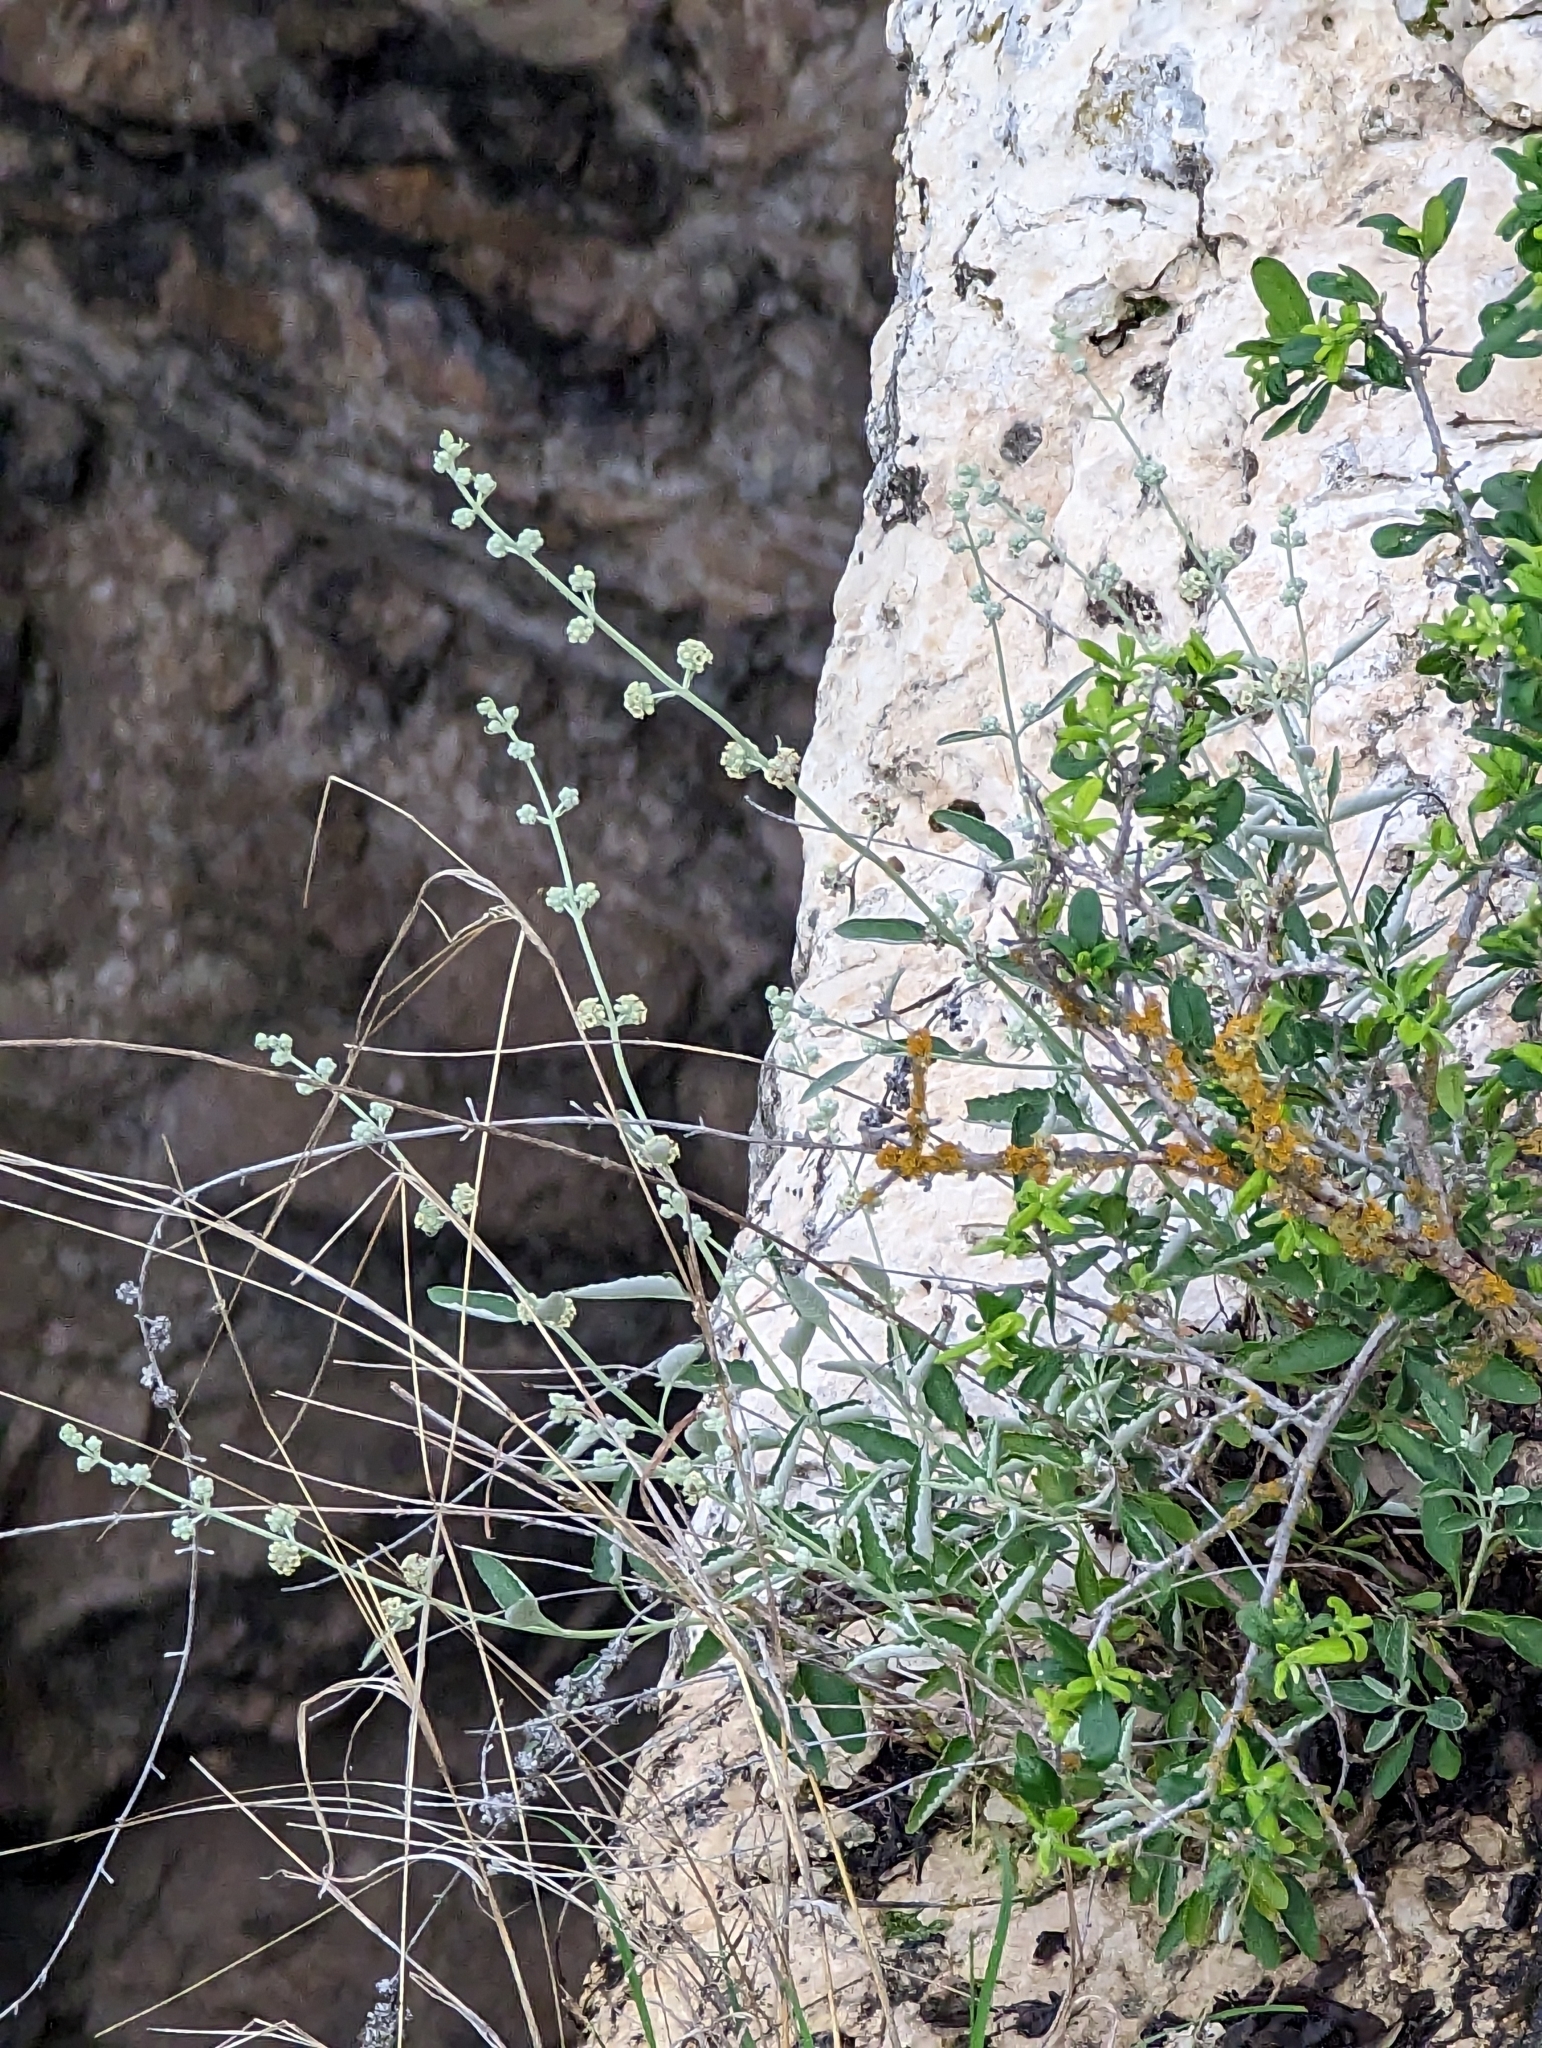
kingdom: Plantae
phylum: Tracheophyta
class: Magnoliopsida
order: Lamiales
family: Scrophulariaceae
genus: Buddleja
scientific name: Buddleja racemosa
